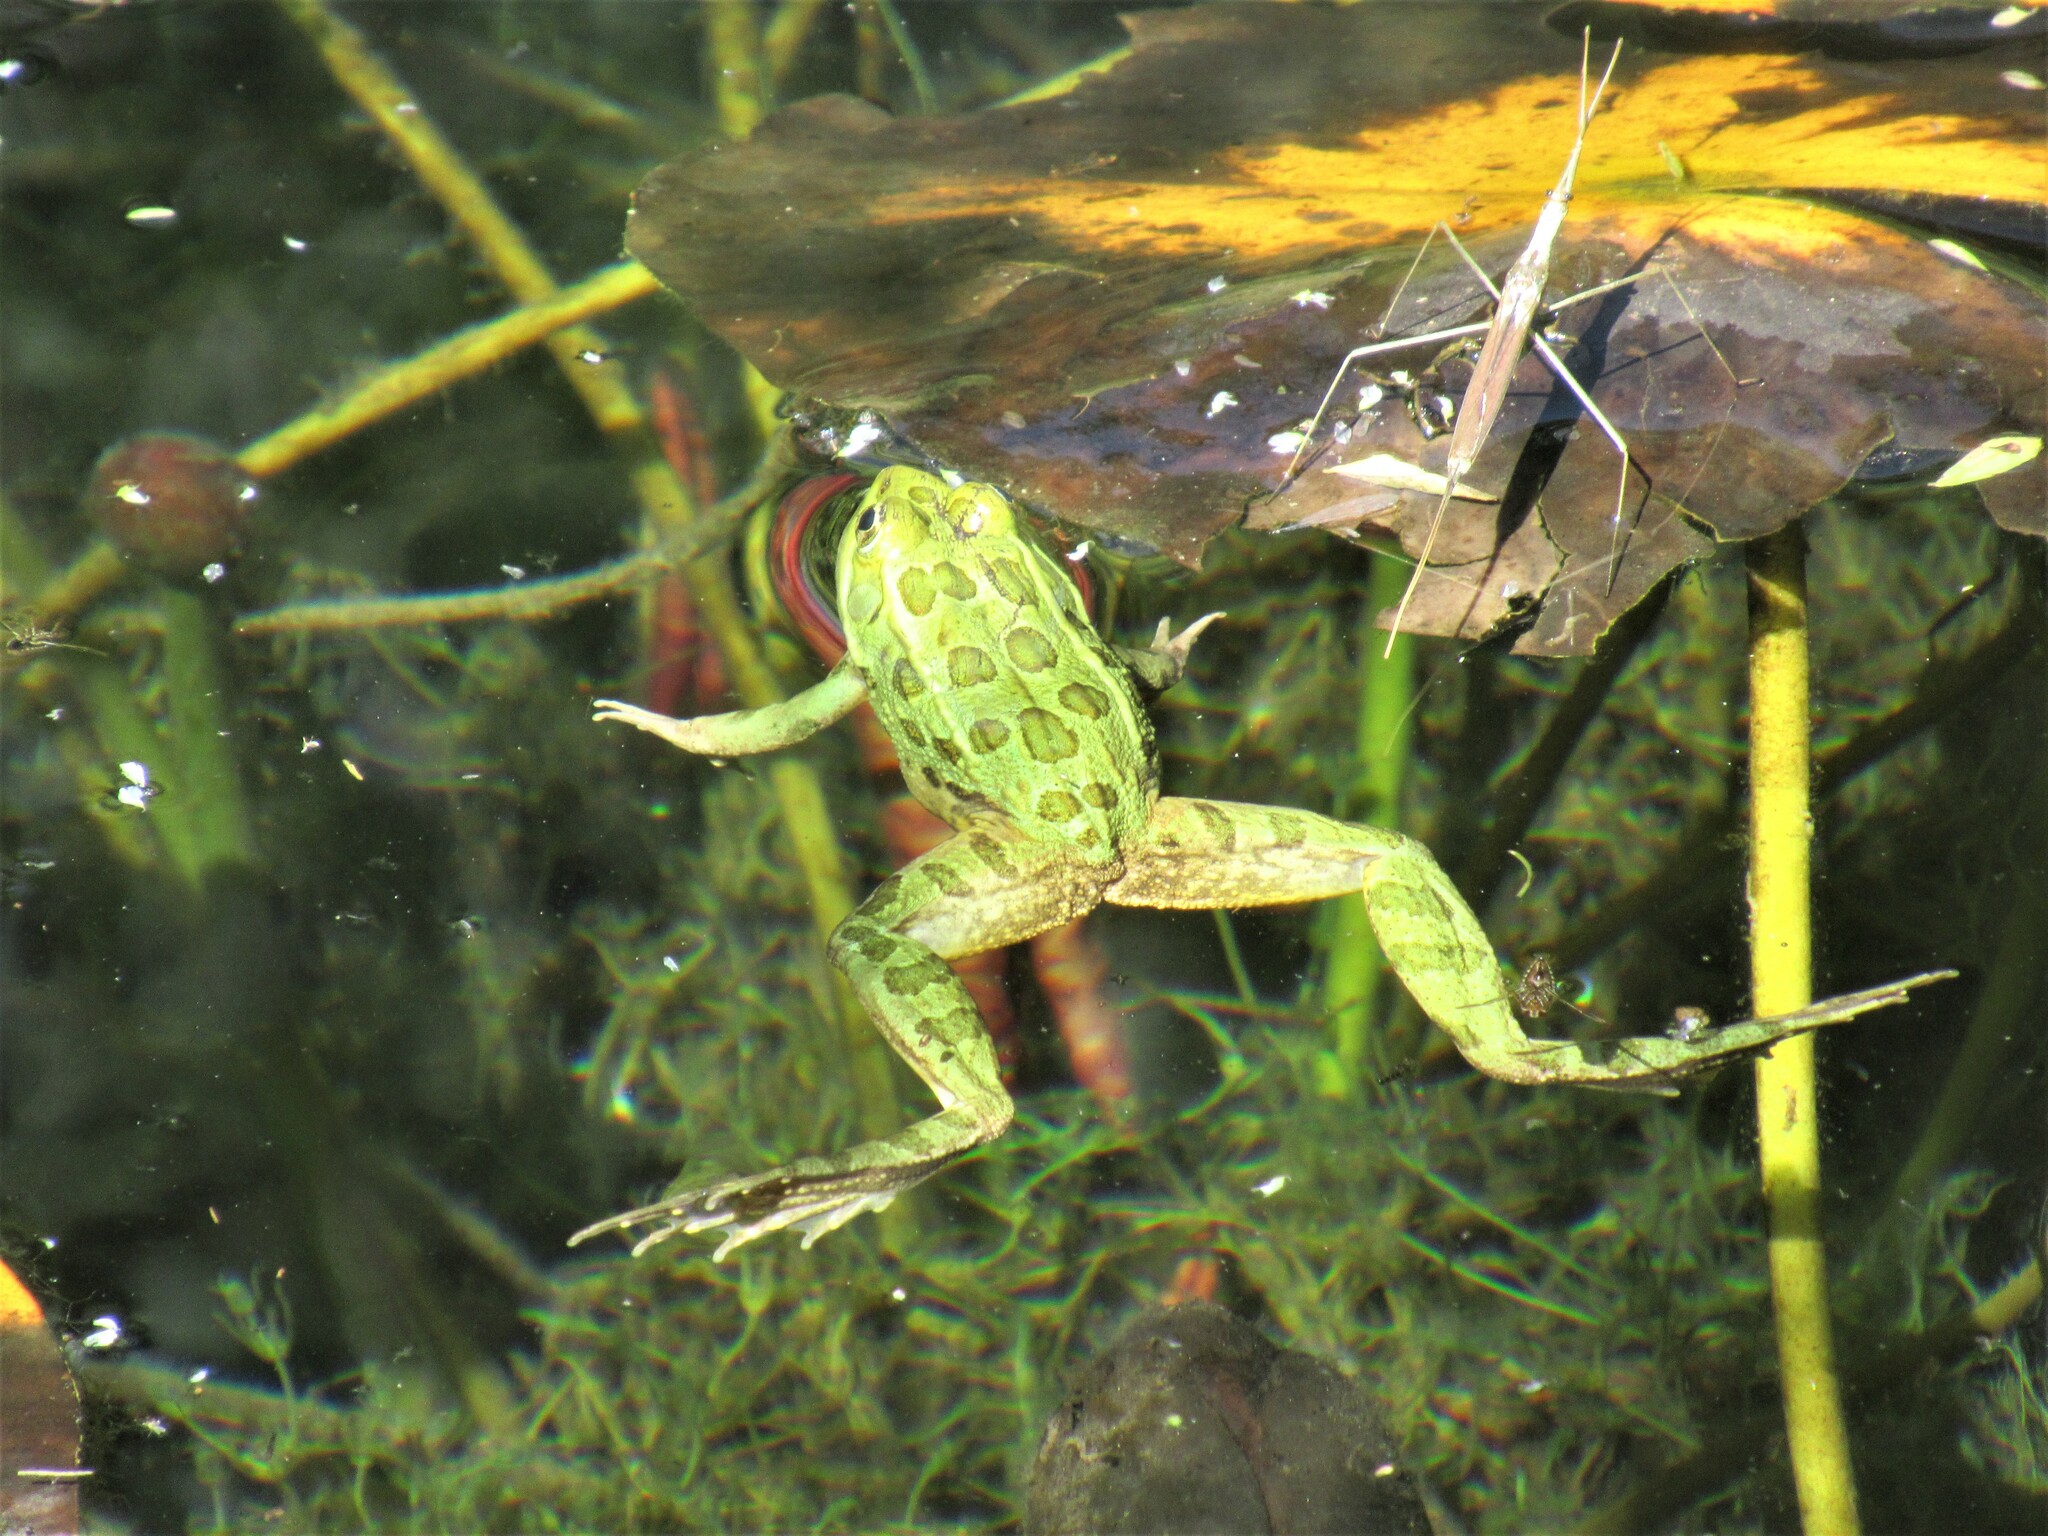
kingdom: Animalia
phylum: Chordata
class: Amphibia
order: Anura
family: Ranidae
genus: Lithobates
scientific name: Lithobates chiricahuensis
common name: Chiricahua leopard frog
